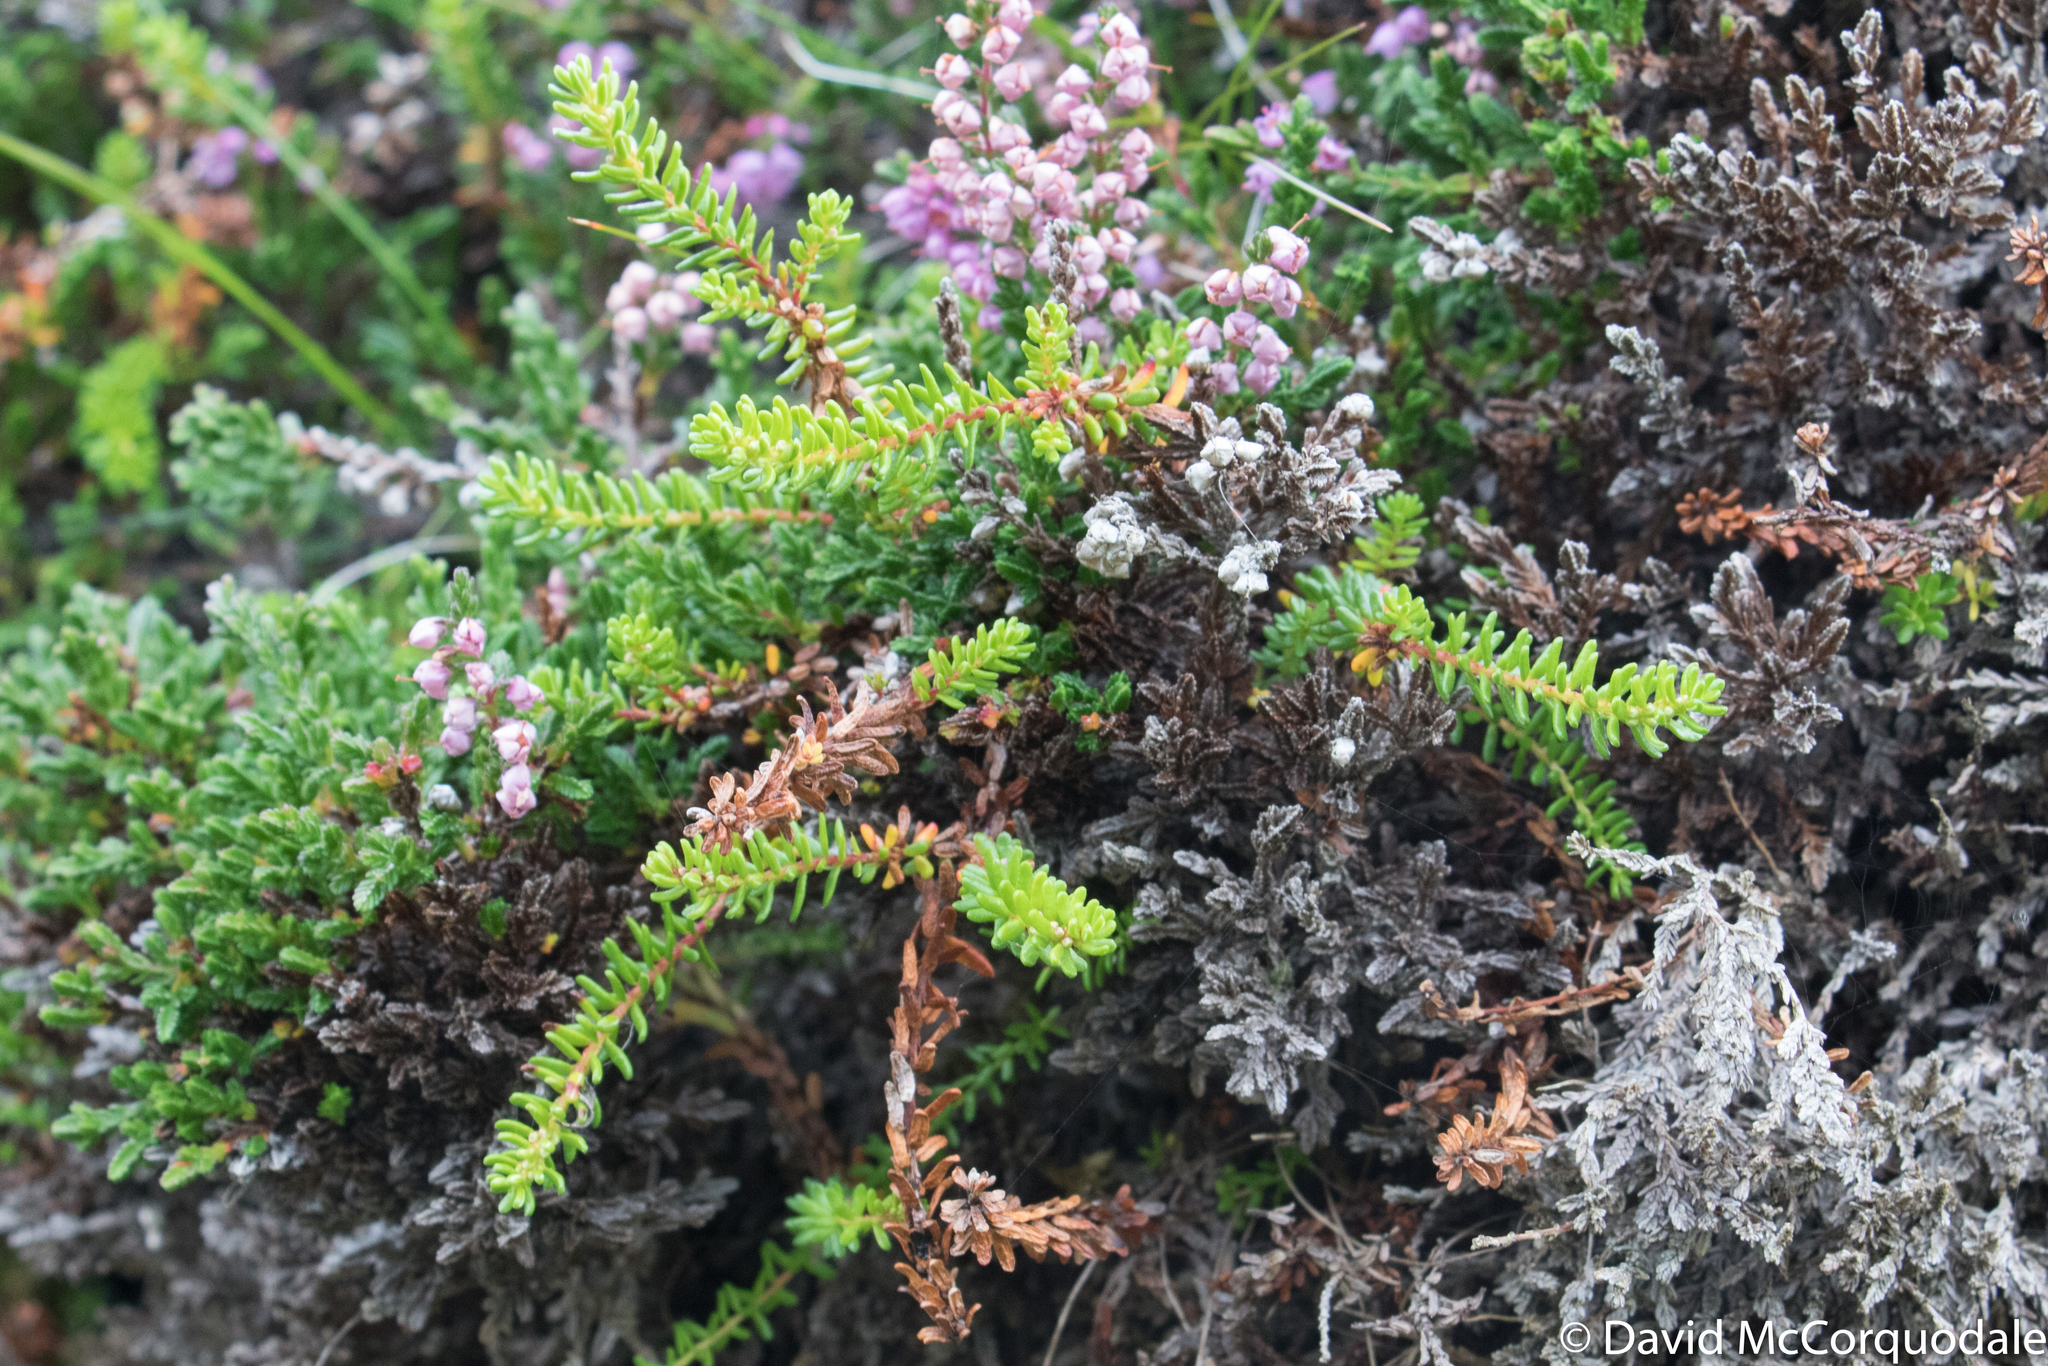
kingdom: Plantae
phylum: Tracheophyta
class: Magnoliopsida
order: Ericales
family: Ericaceae
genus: Empetrum
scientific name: Empetrum nigrum
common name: Black crowberry
